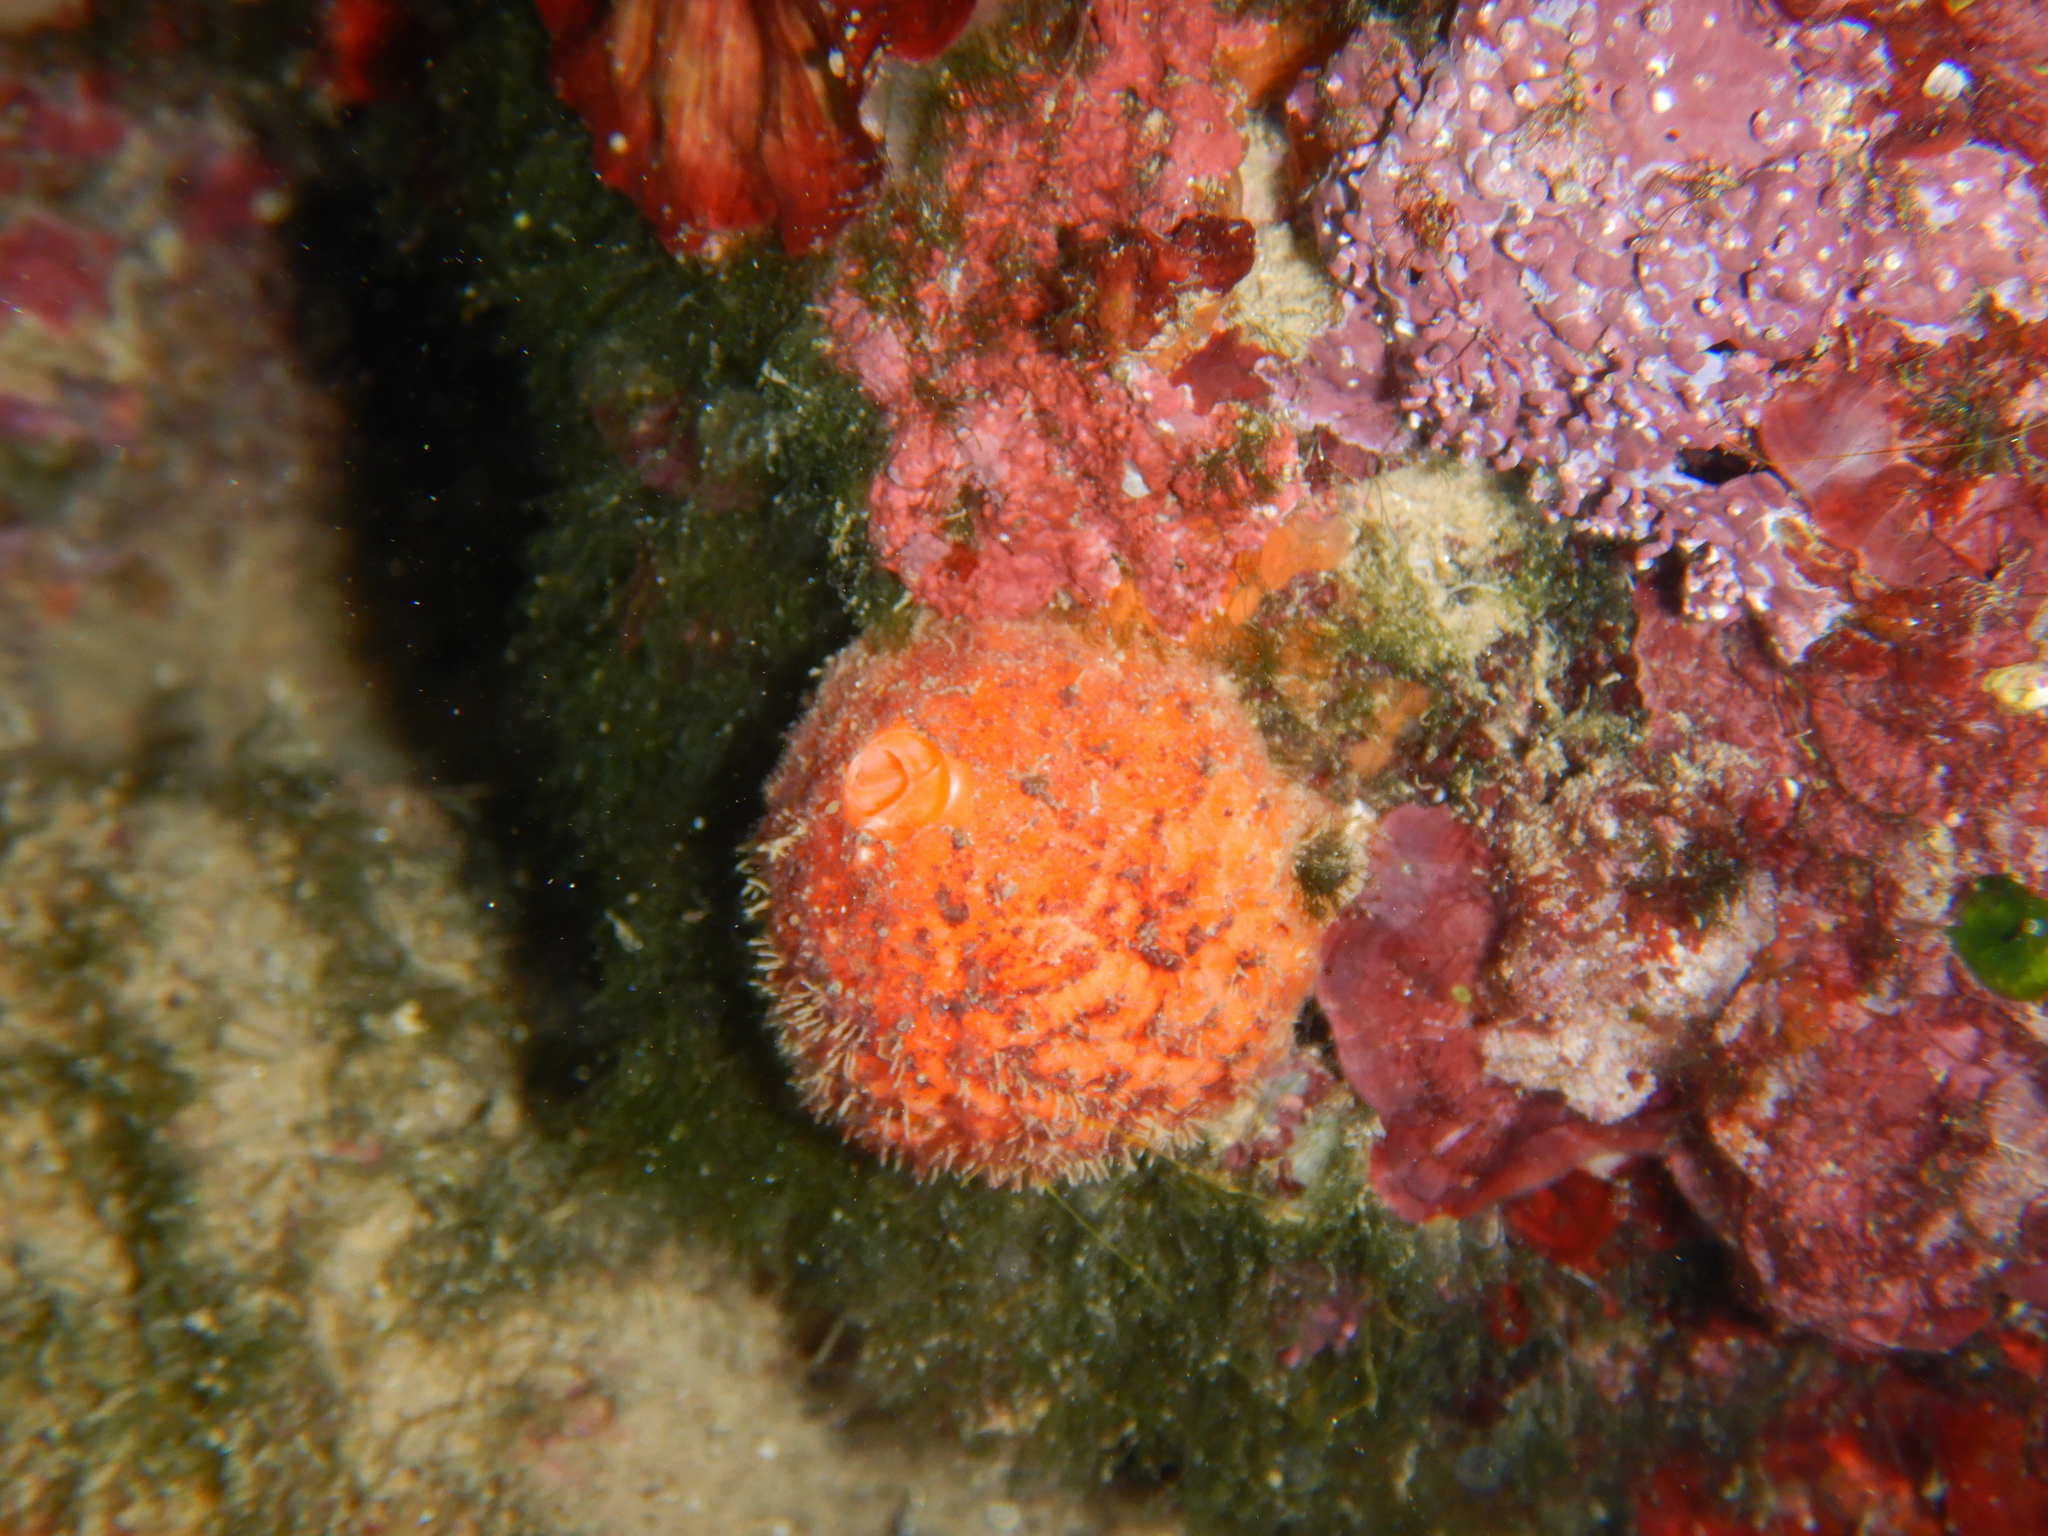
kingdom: Animalia
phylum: Porifera
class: Demospongiae
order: Tethyida
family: Tethyidae
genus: Tethya
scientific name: Tethya aurantium
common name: Golf ball sponge
